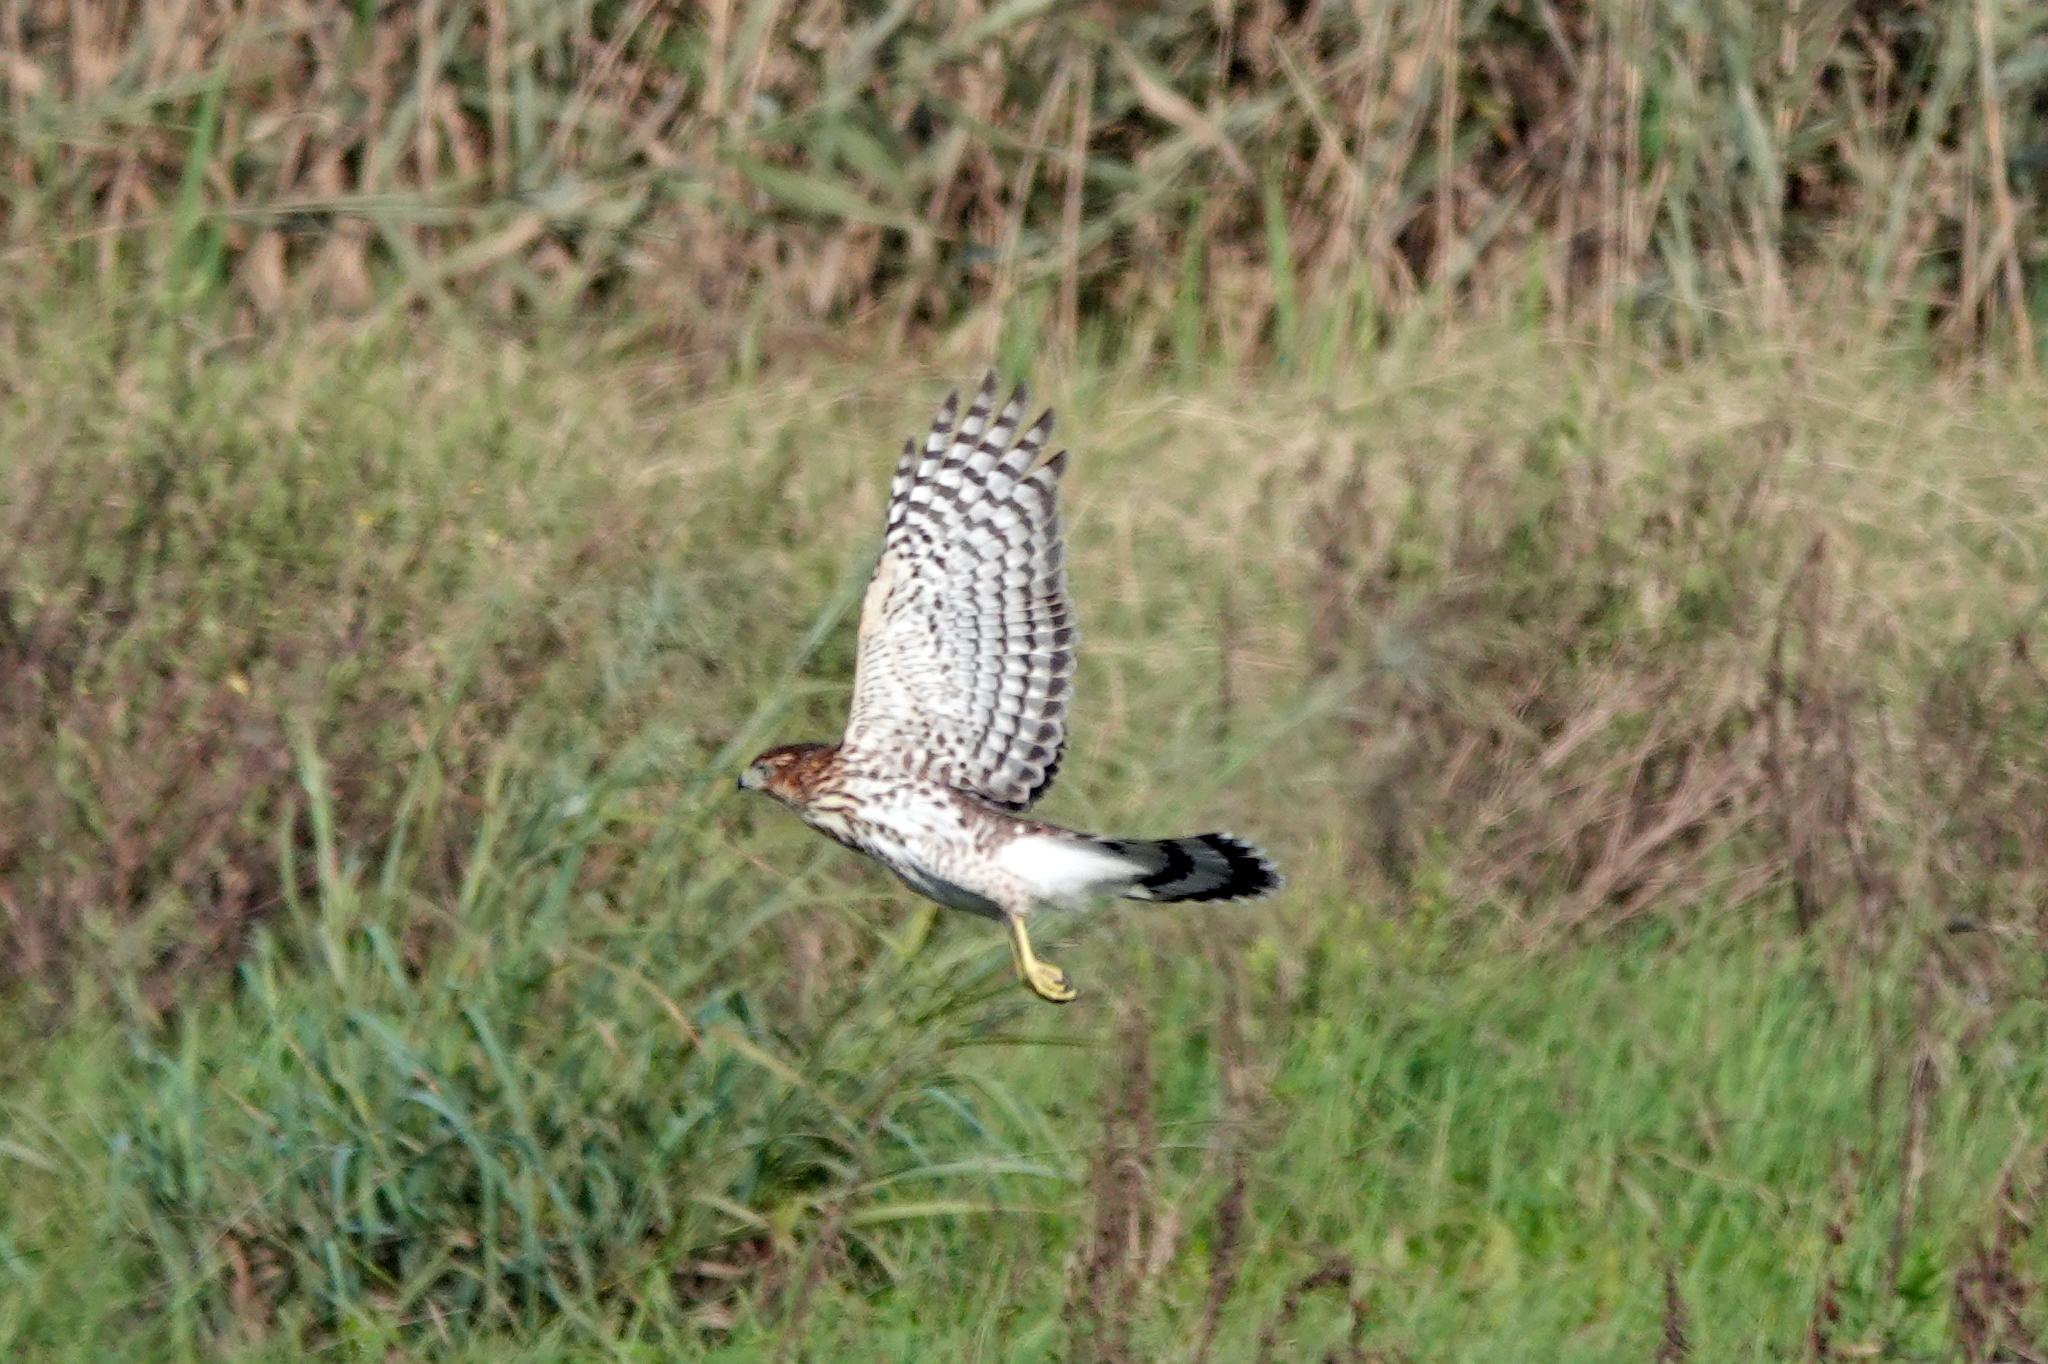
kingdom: Animalia
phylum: Chordata
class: Aves
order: Accipitriformes
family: Accipitridae
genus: Accipiter
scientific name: Accipiter cooperii
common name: Cooper's hawk
